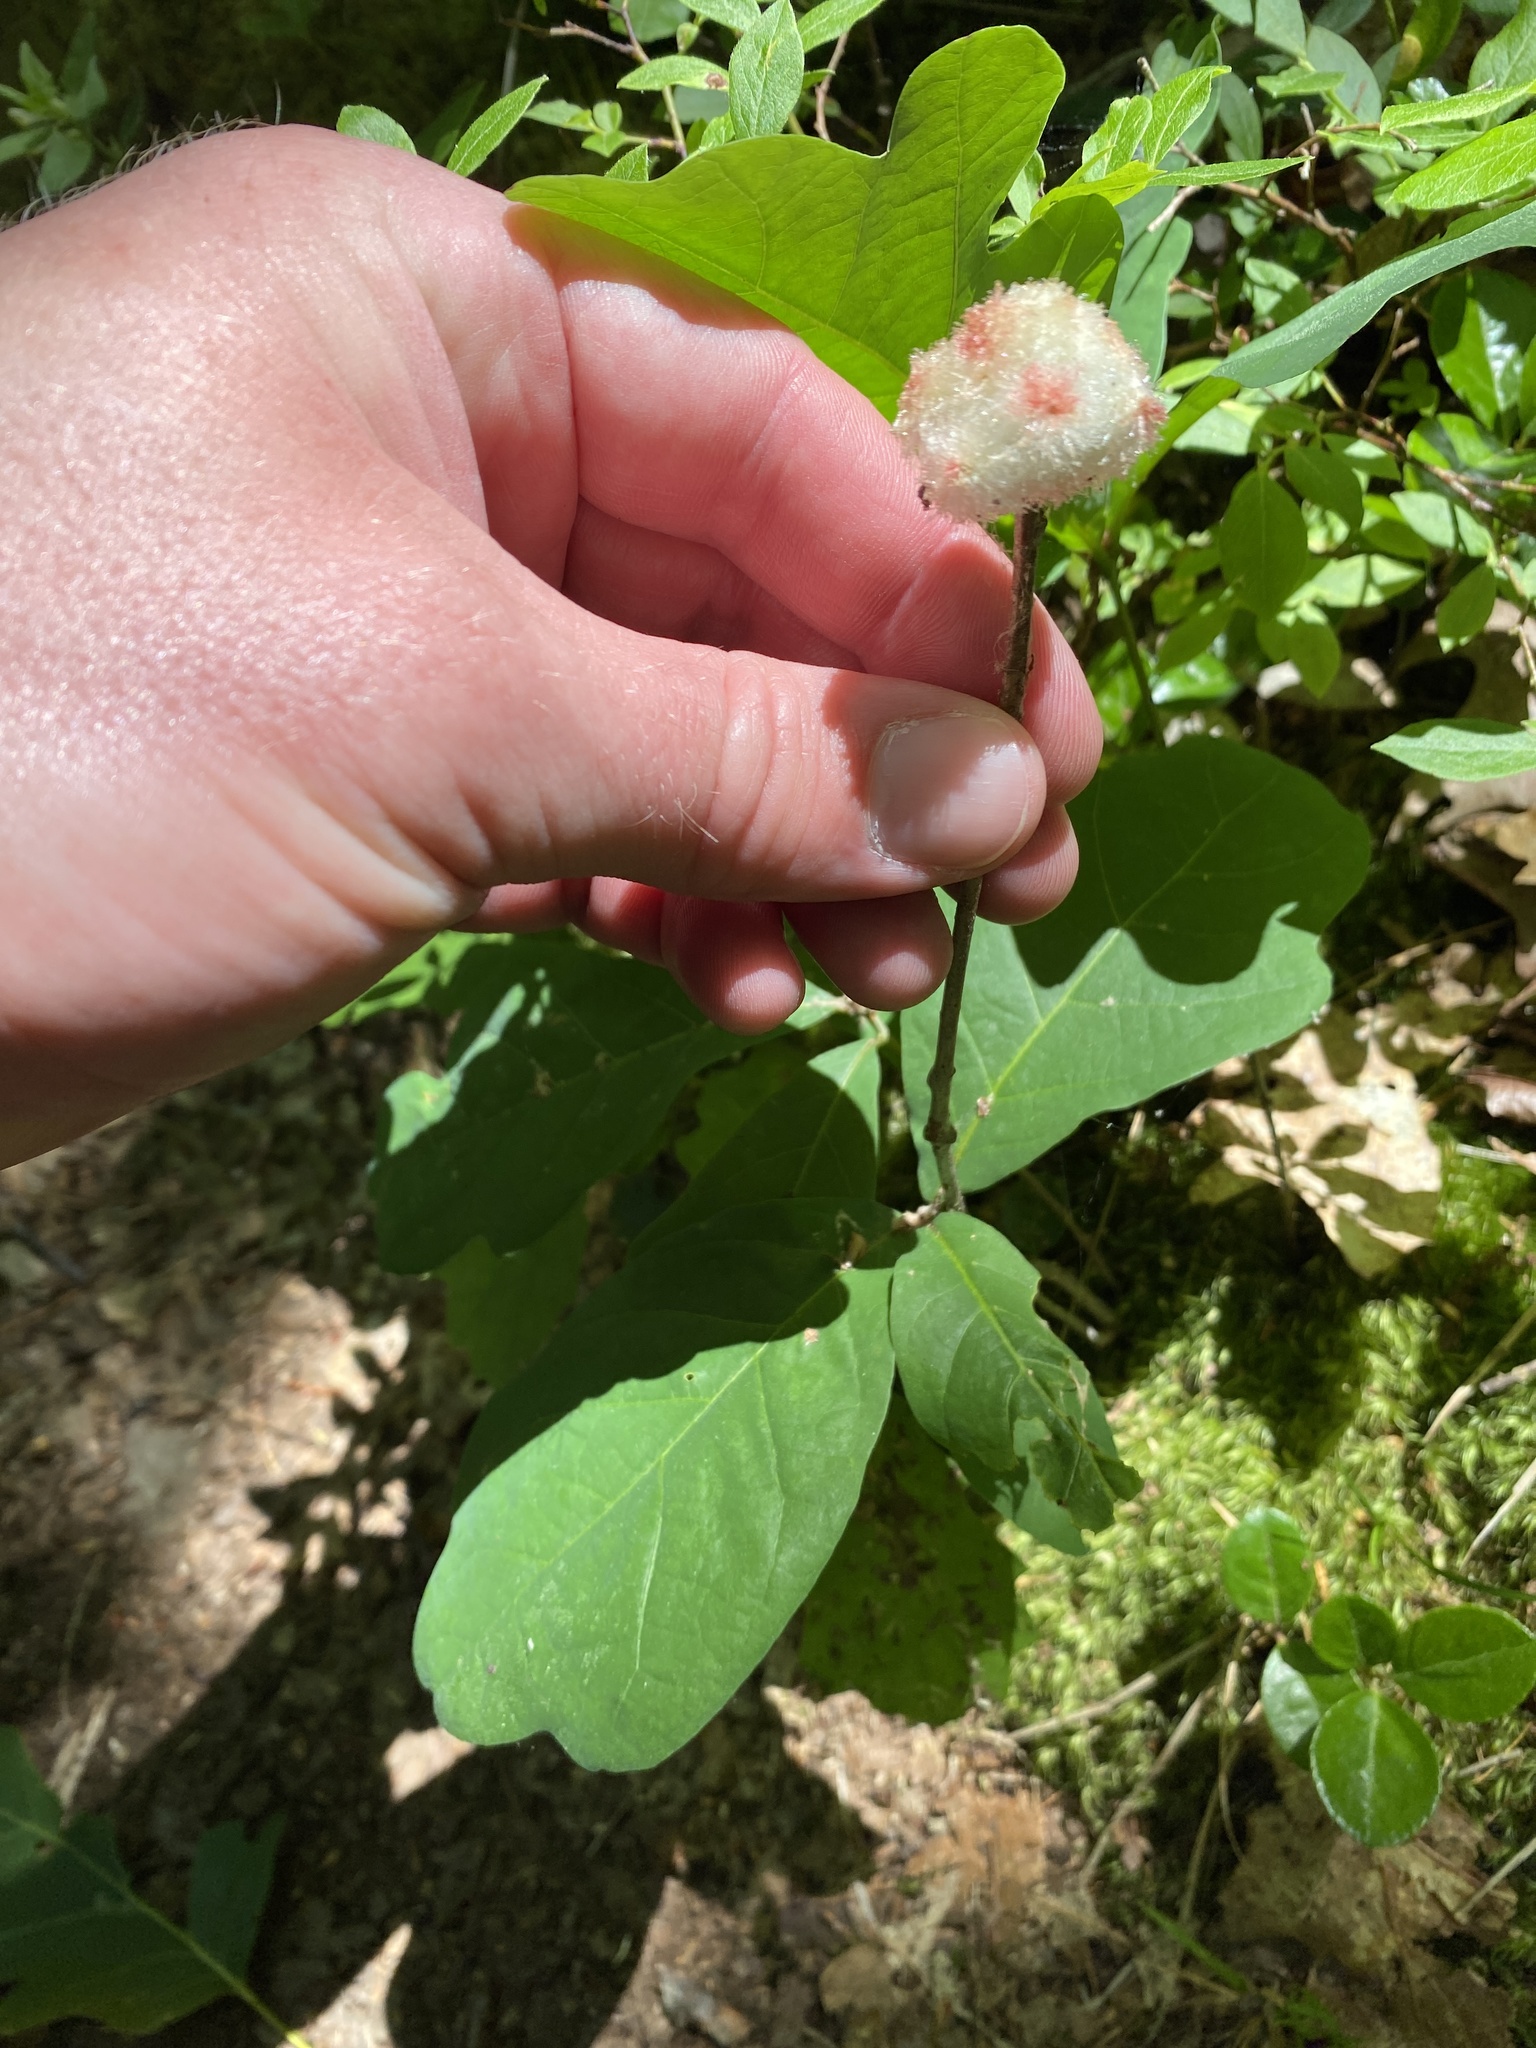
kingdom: Animalia
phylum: Arthropoda
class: Insecta
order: Hymenoptera
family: Cynipidae
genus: Callirhytis
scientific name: Callirhytis
